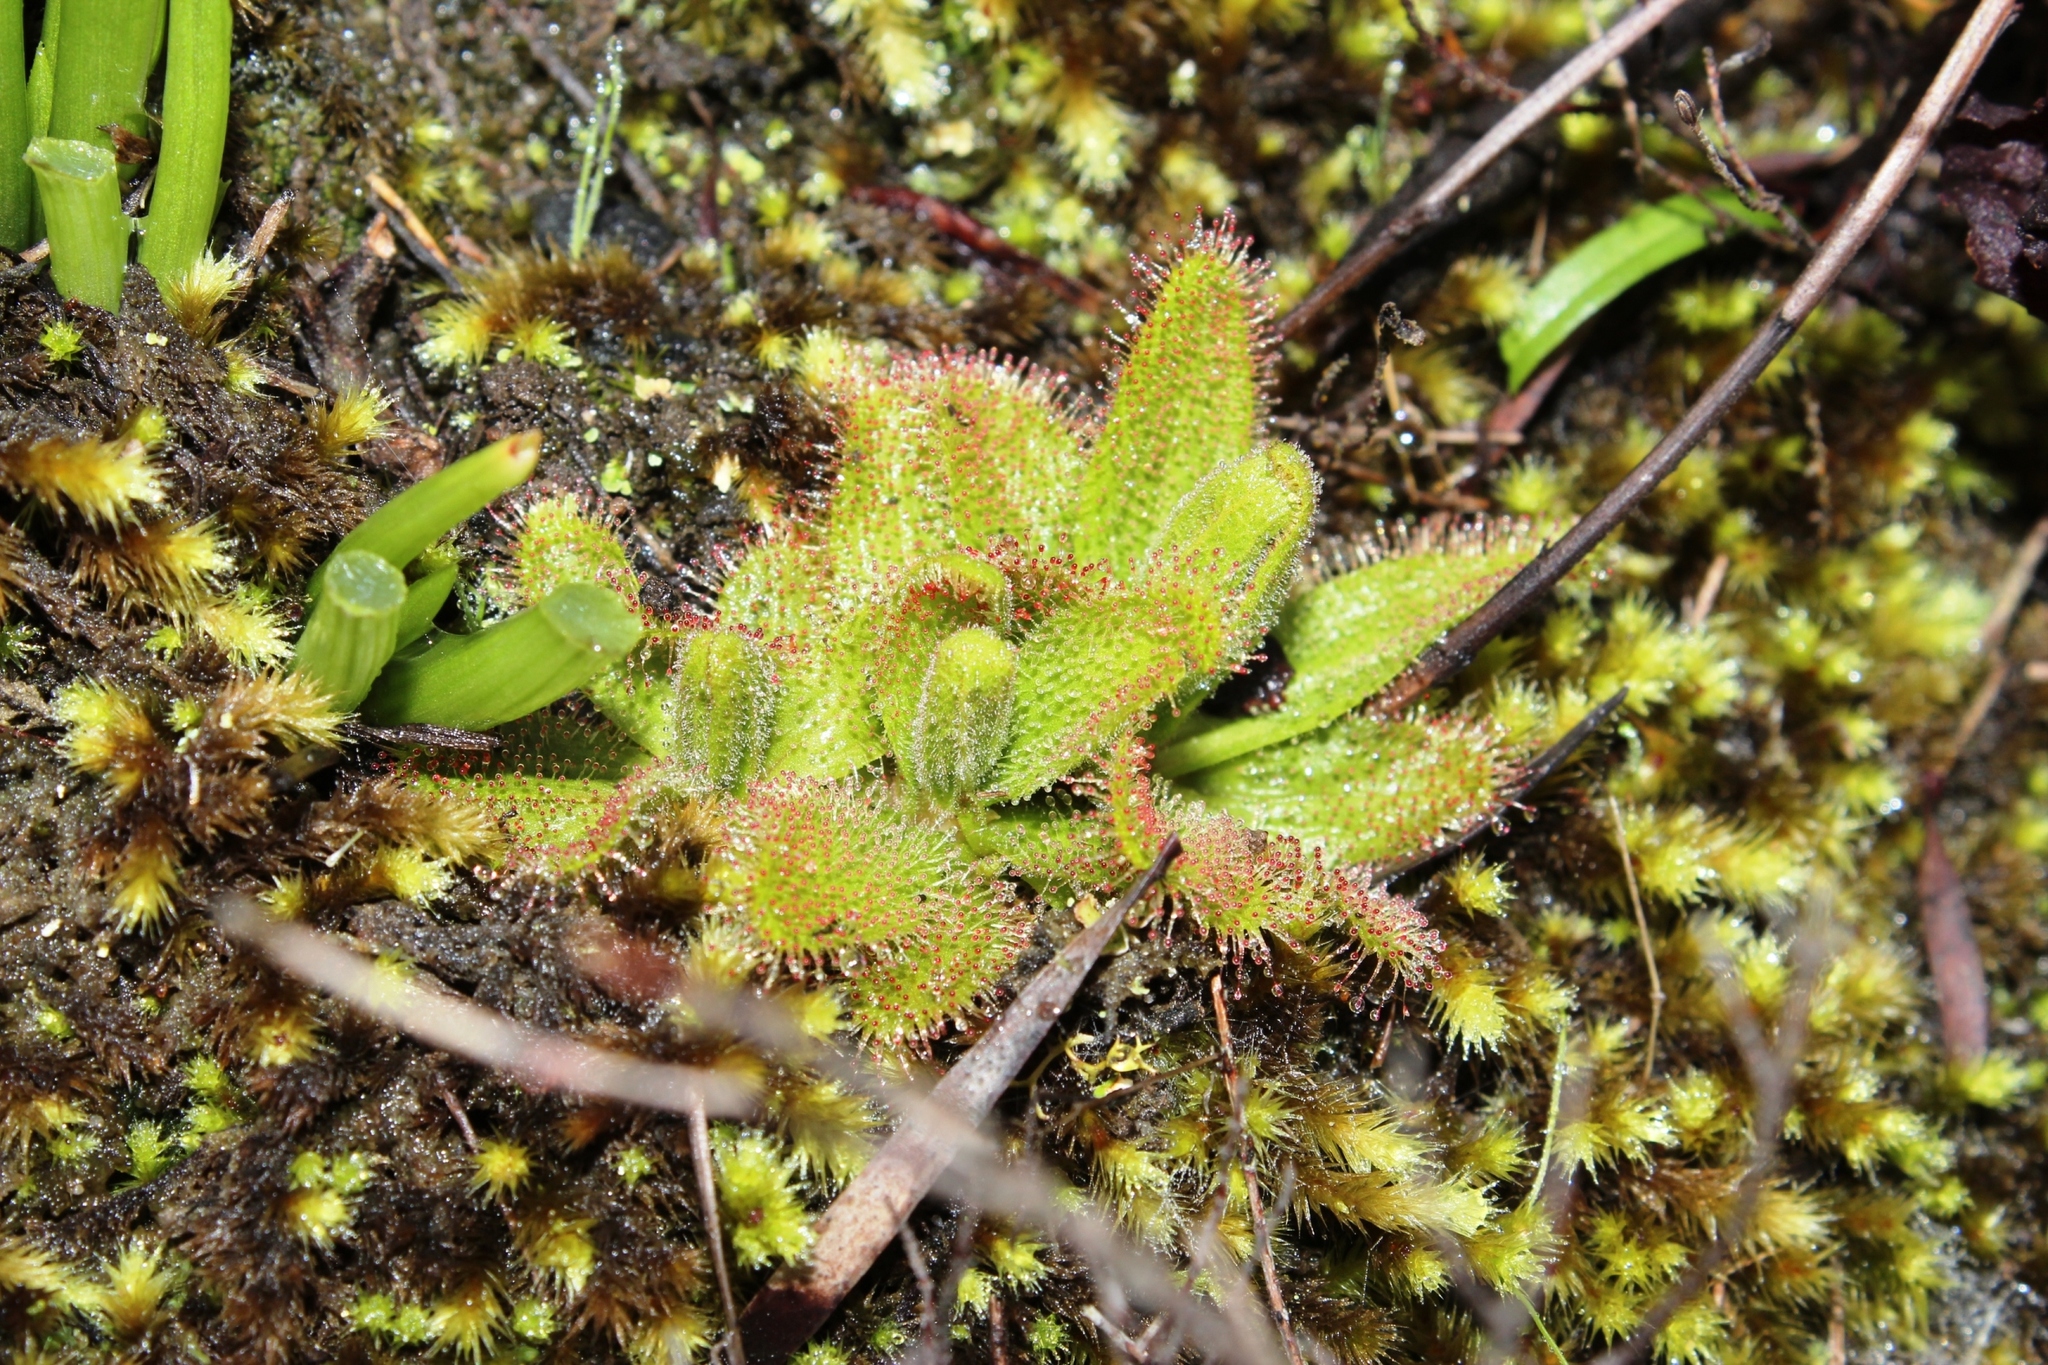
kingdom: Plantae
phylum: Tracheophyta
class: Magnoliopsida
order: Caryophyllales
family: Droseraceae
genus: Drosera
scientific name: Drosera cistiflora
